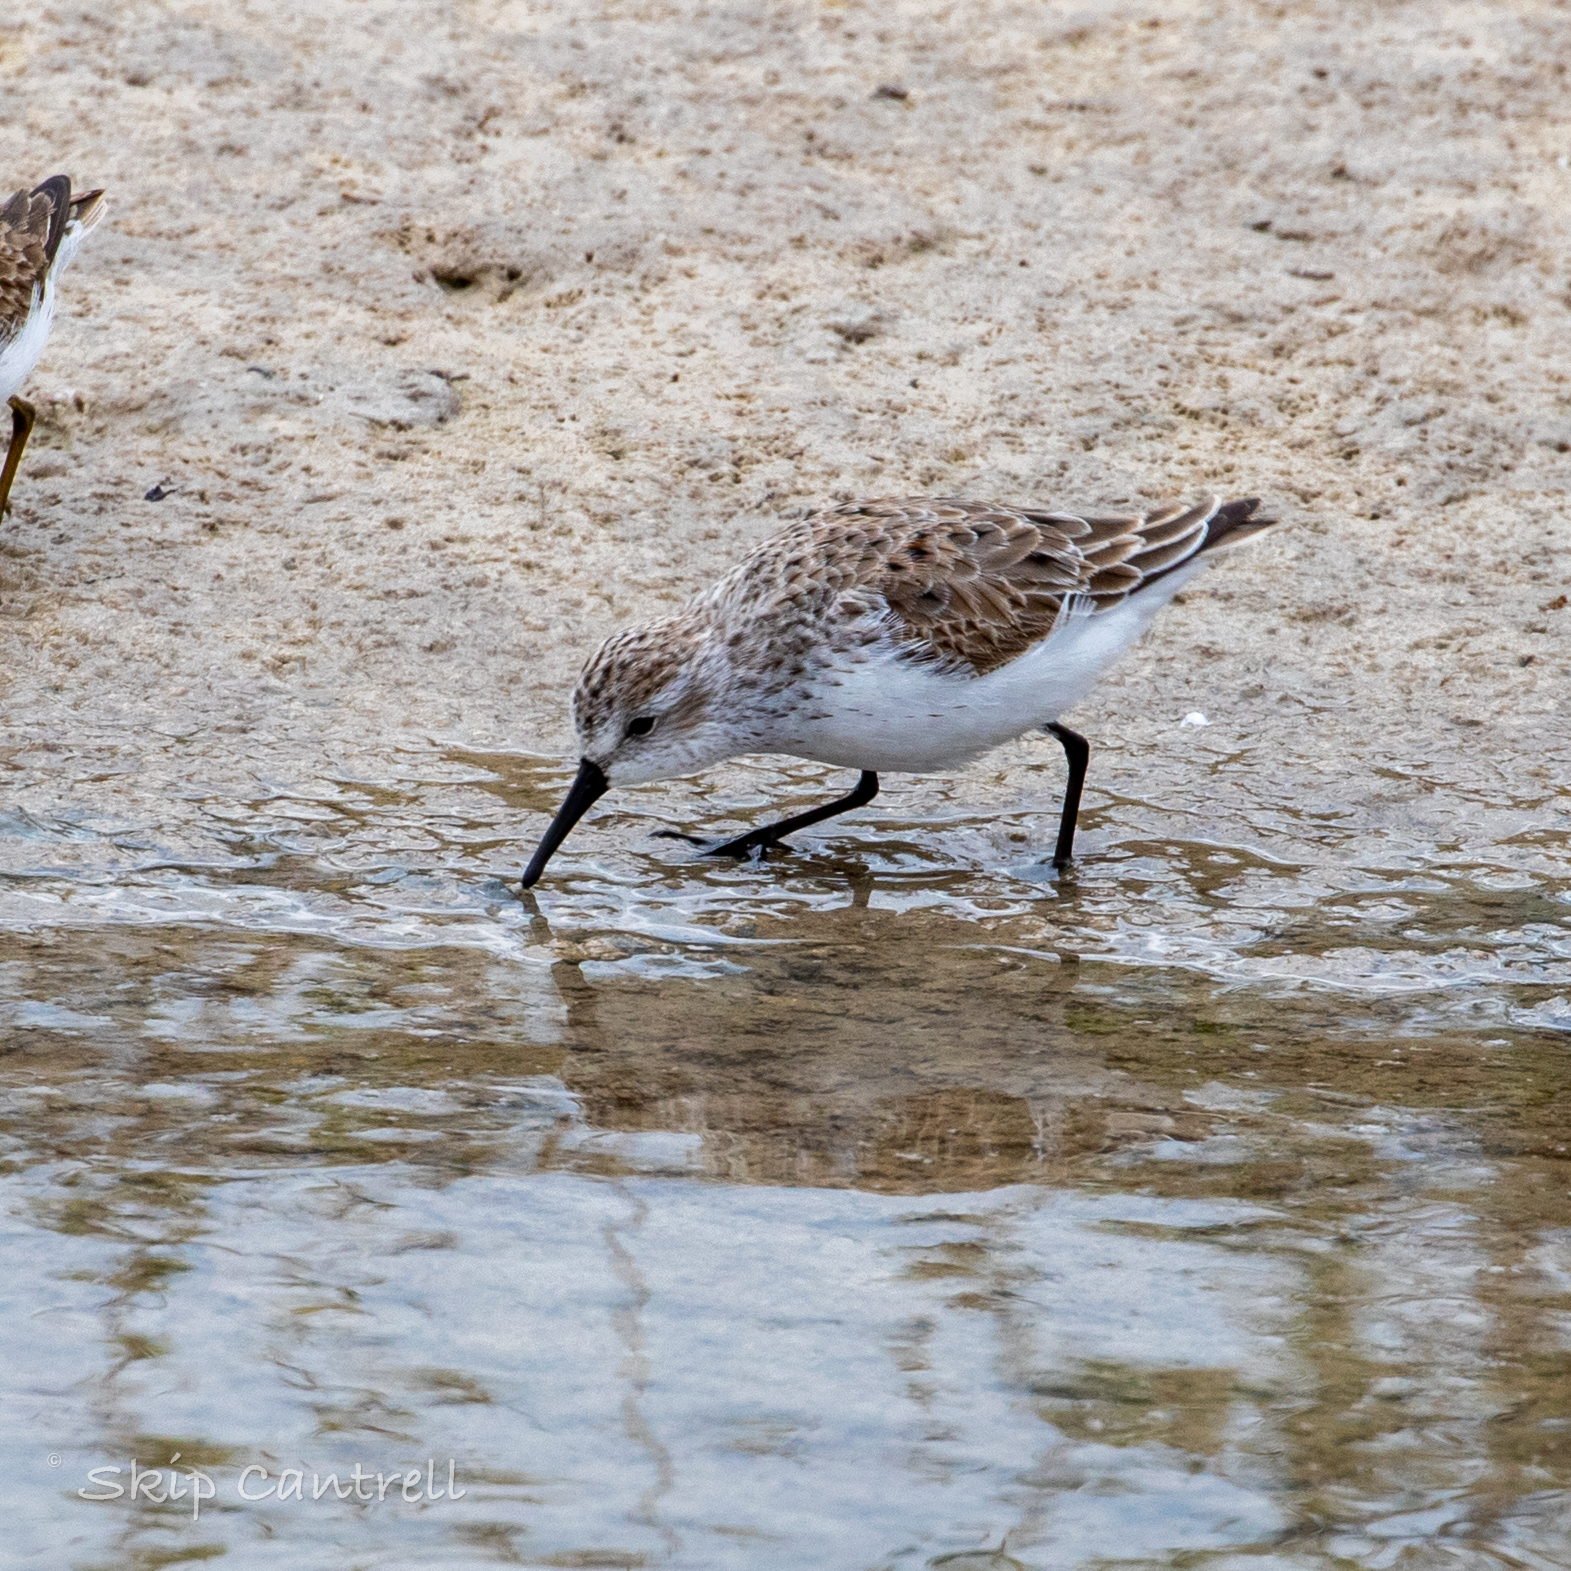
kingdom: Animalia
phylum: Chordata
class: Aves
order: Charadriiformes
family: Scolopacidae
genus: Calidris
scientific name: Calidris mauri
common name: Western sandpiper
